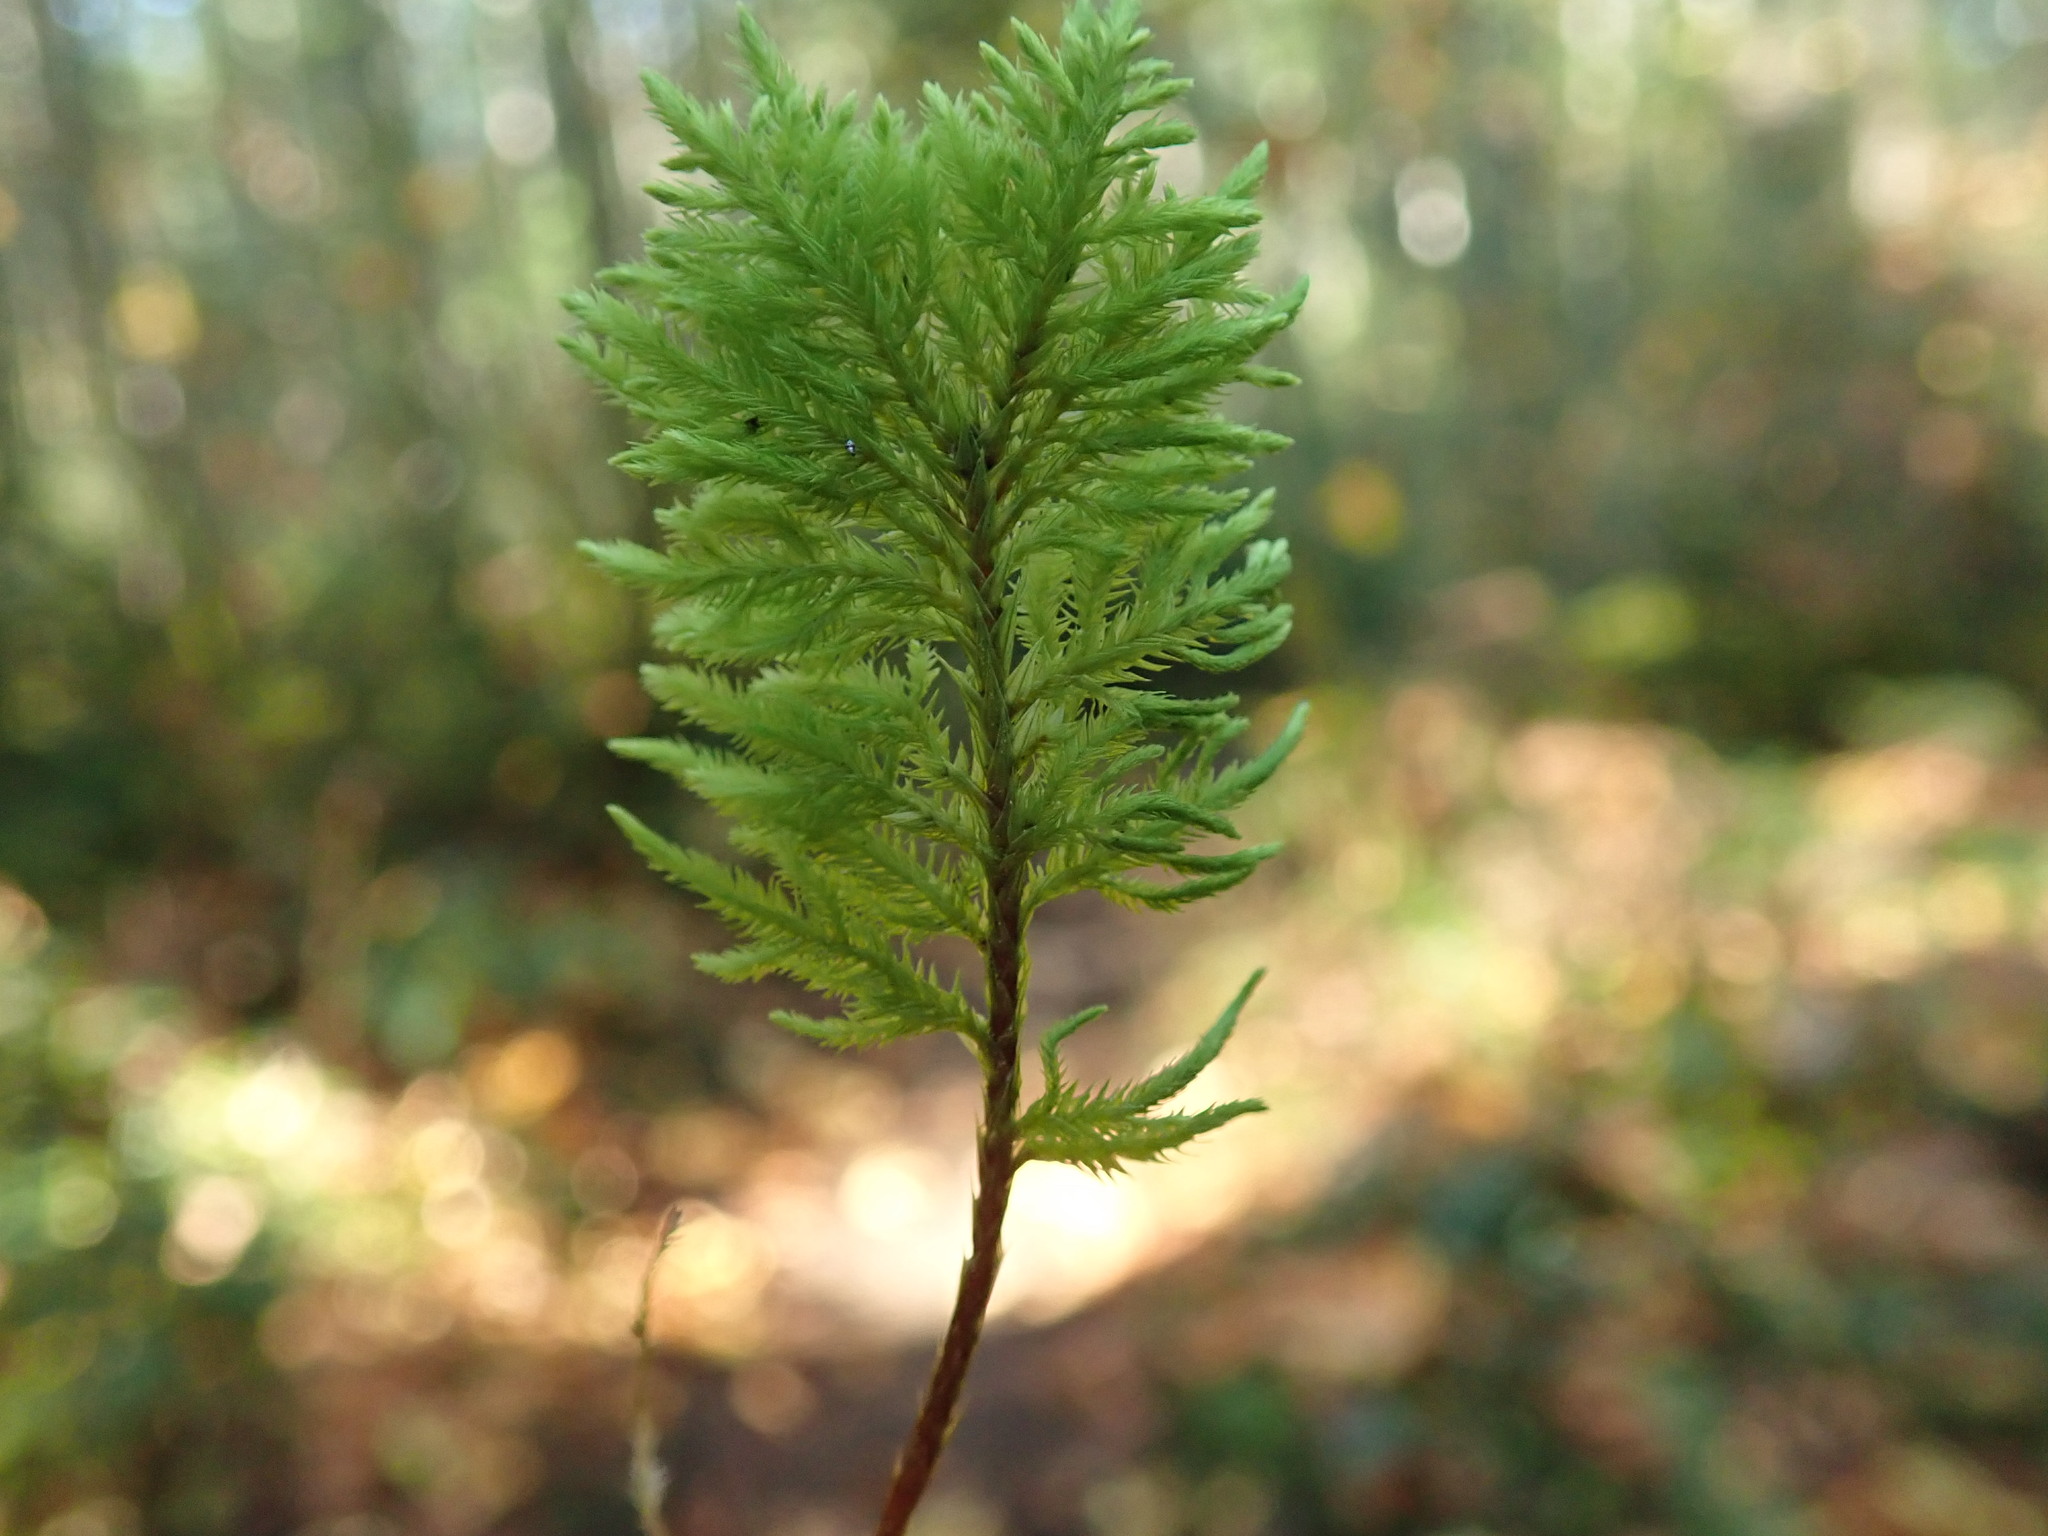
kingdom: Plantae
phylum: Bryophyta
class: Bryopsida
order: Hypnales
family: Cryphaeaceae
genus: Dendroalsia
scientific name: Dendroalsia abietina
